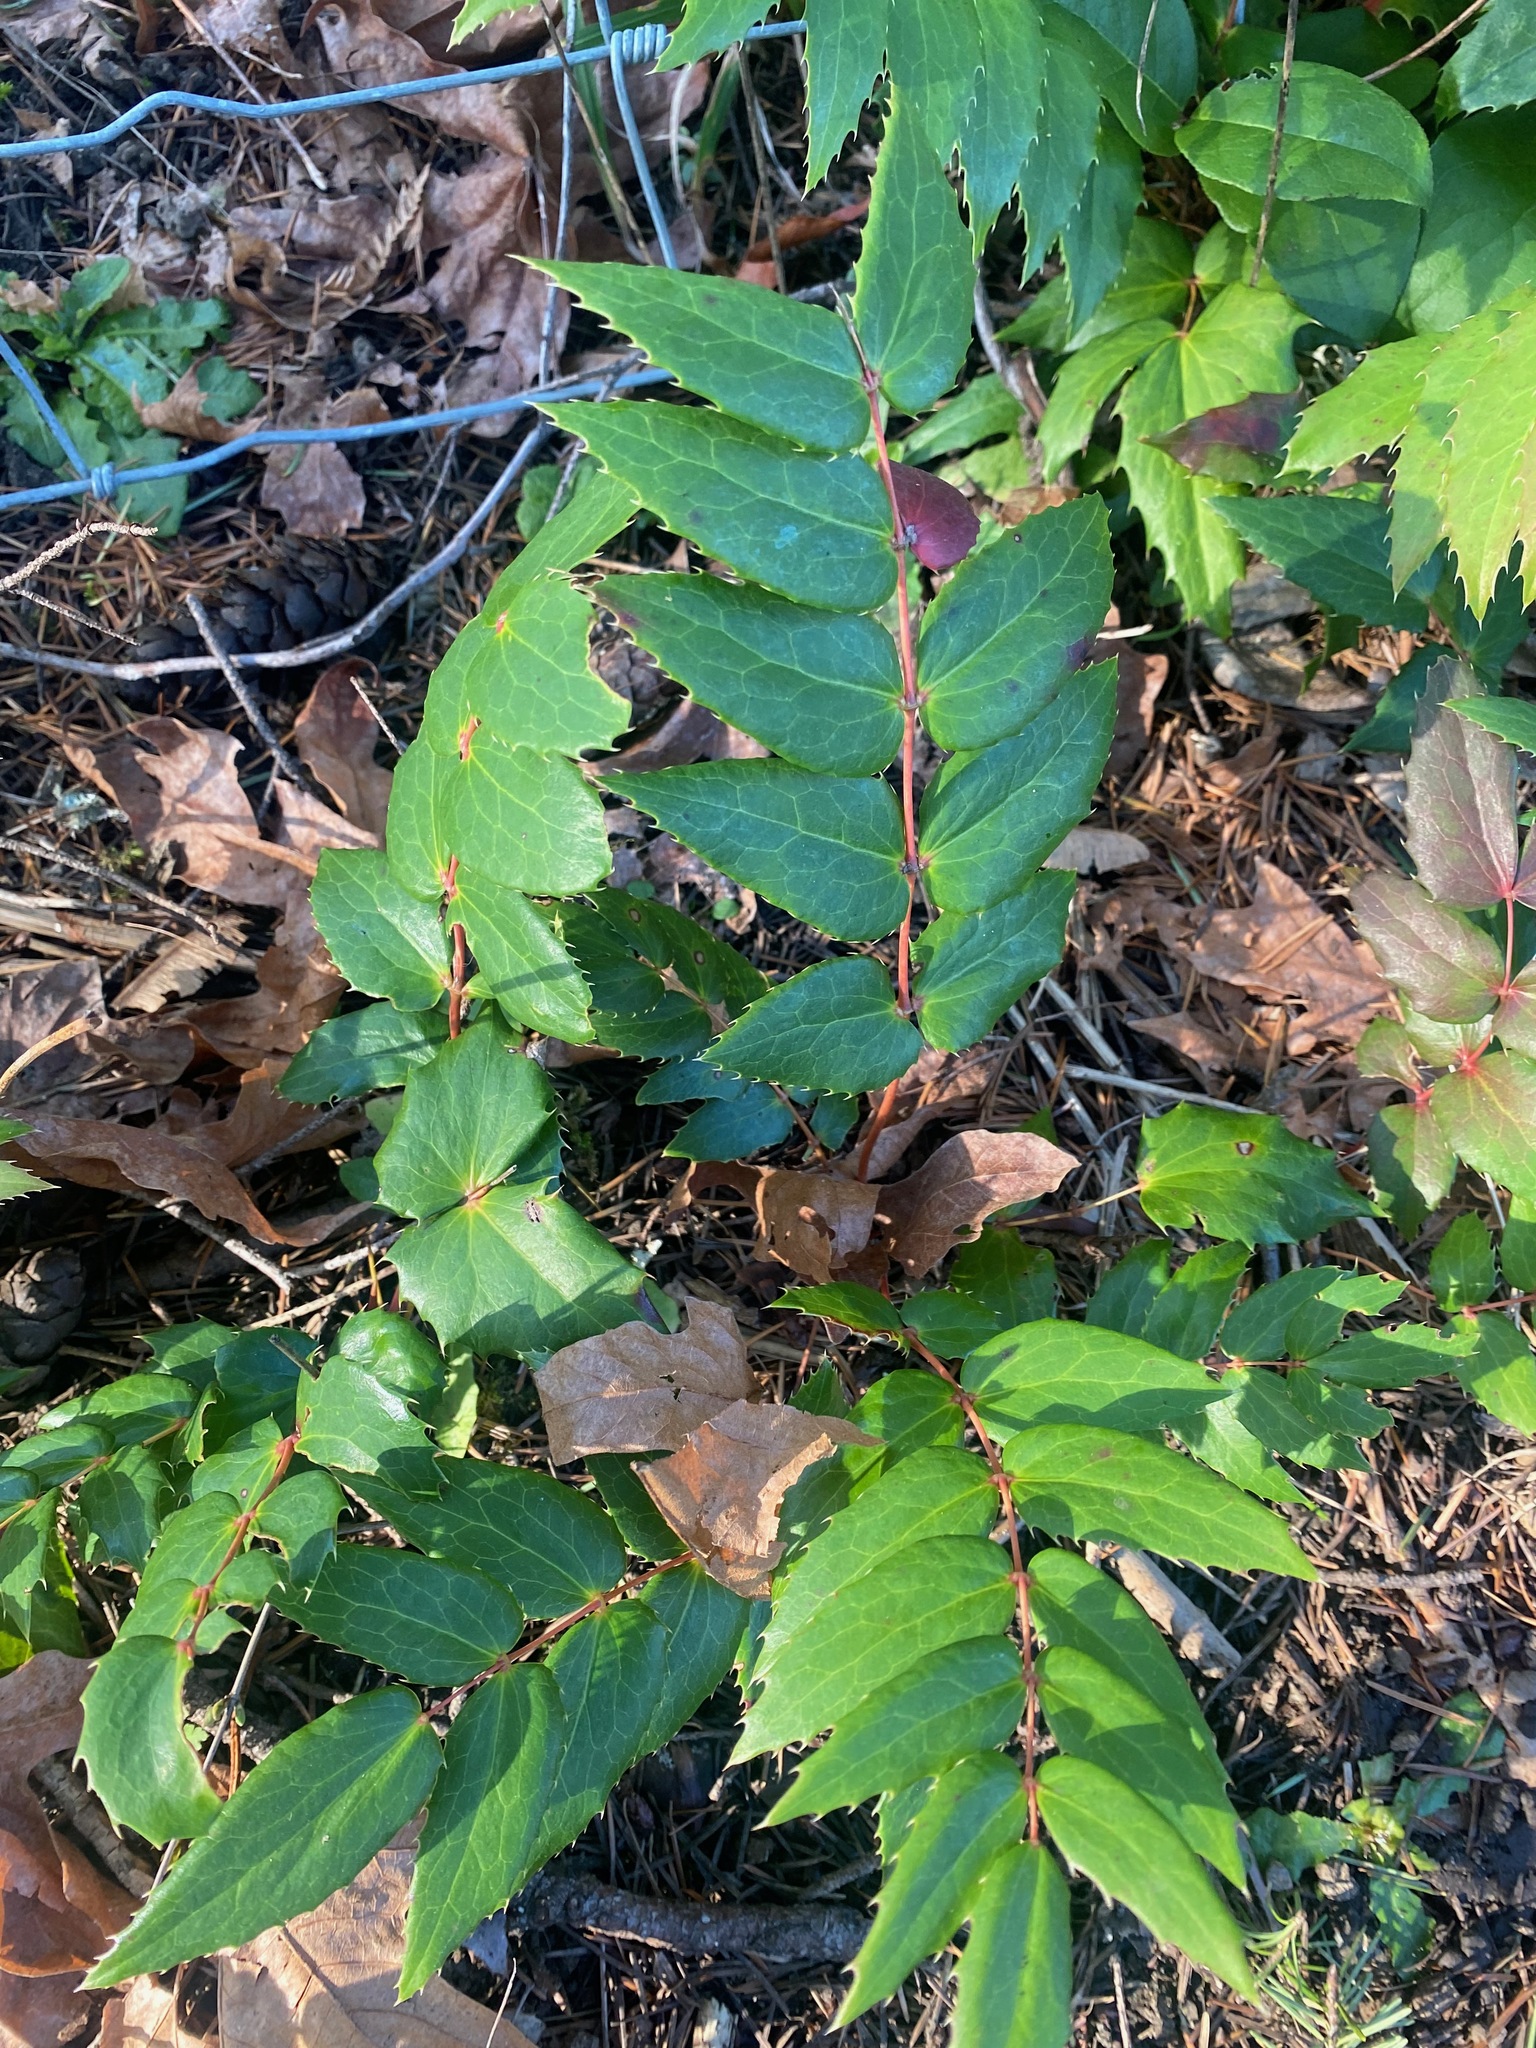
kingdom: Plantae
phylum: Tracheophyta
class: Magnoliopsida
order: Ranunculales
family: Berberidaceae
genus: Mahonia
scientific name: Mahonia nervosa
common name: Cascade oregon-grape
